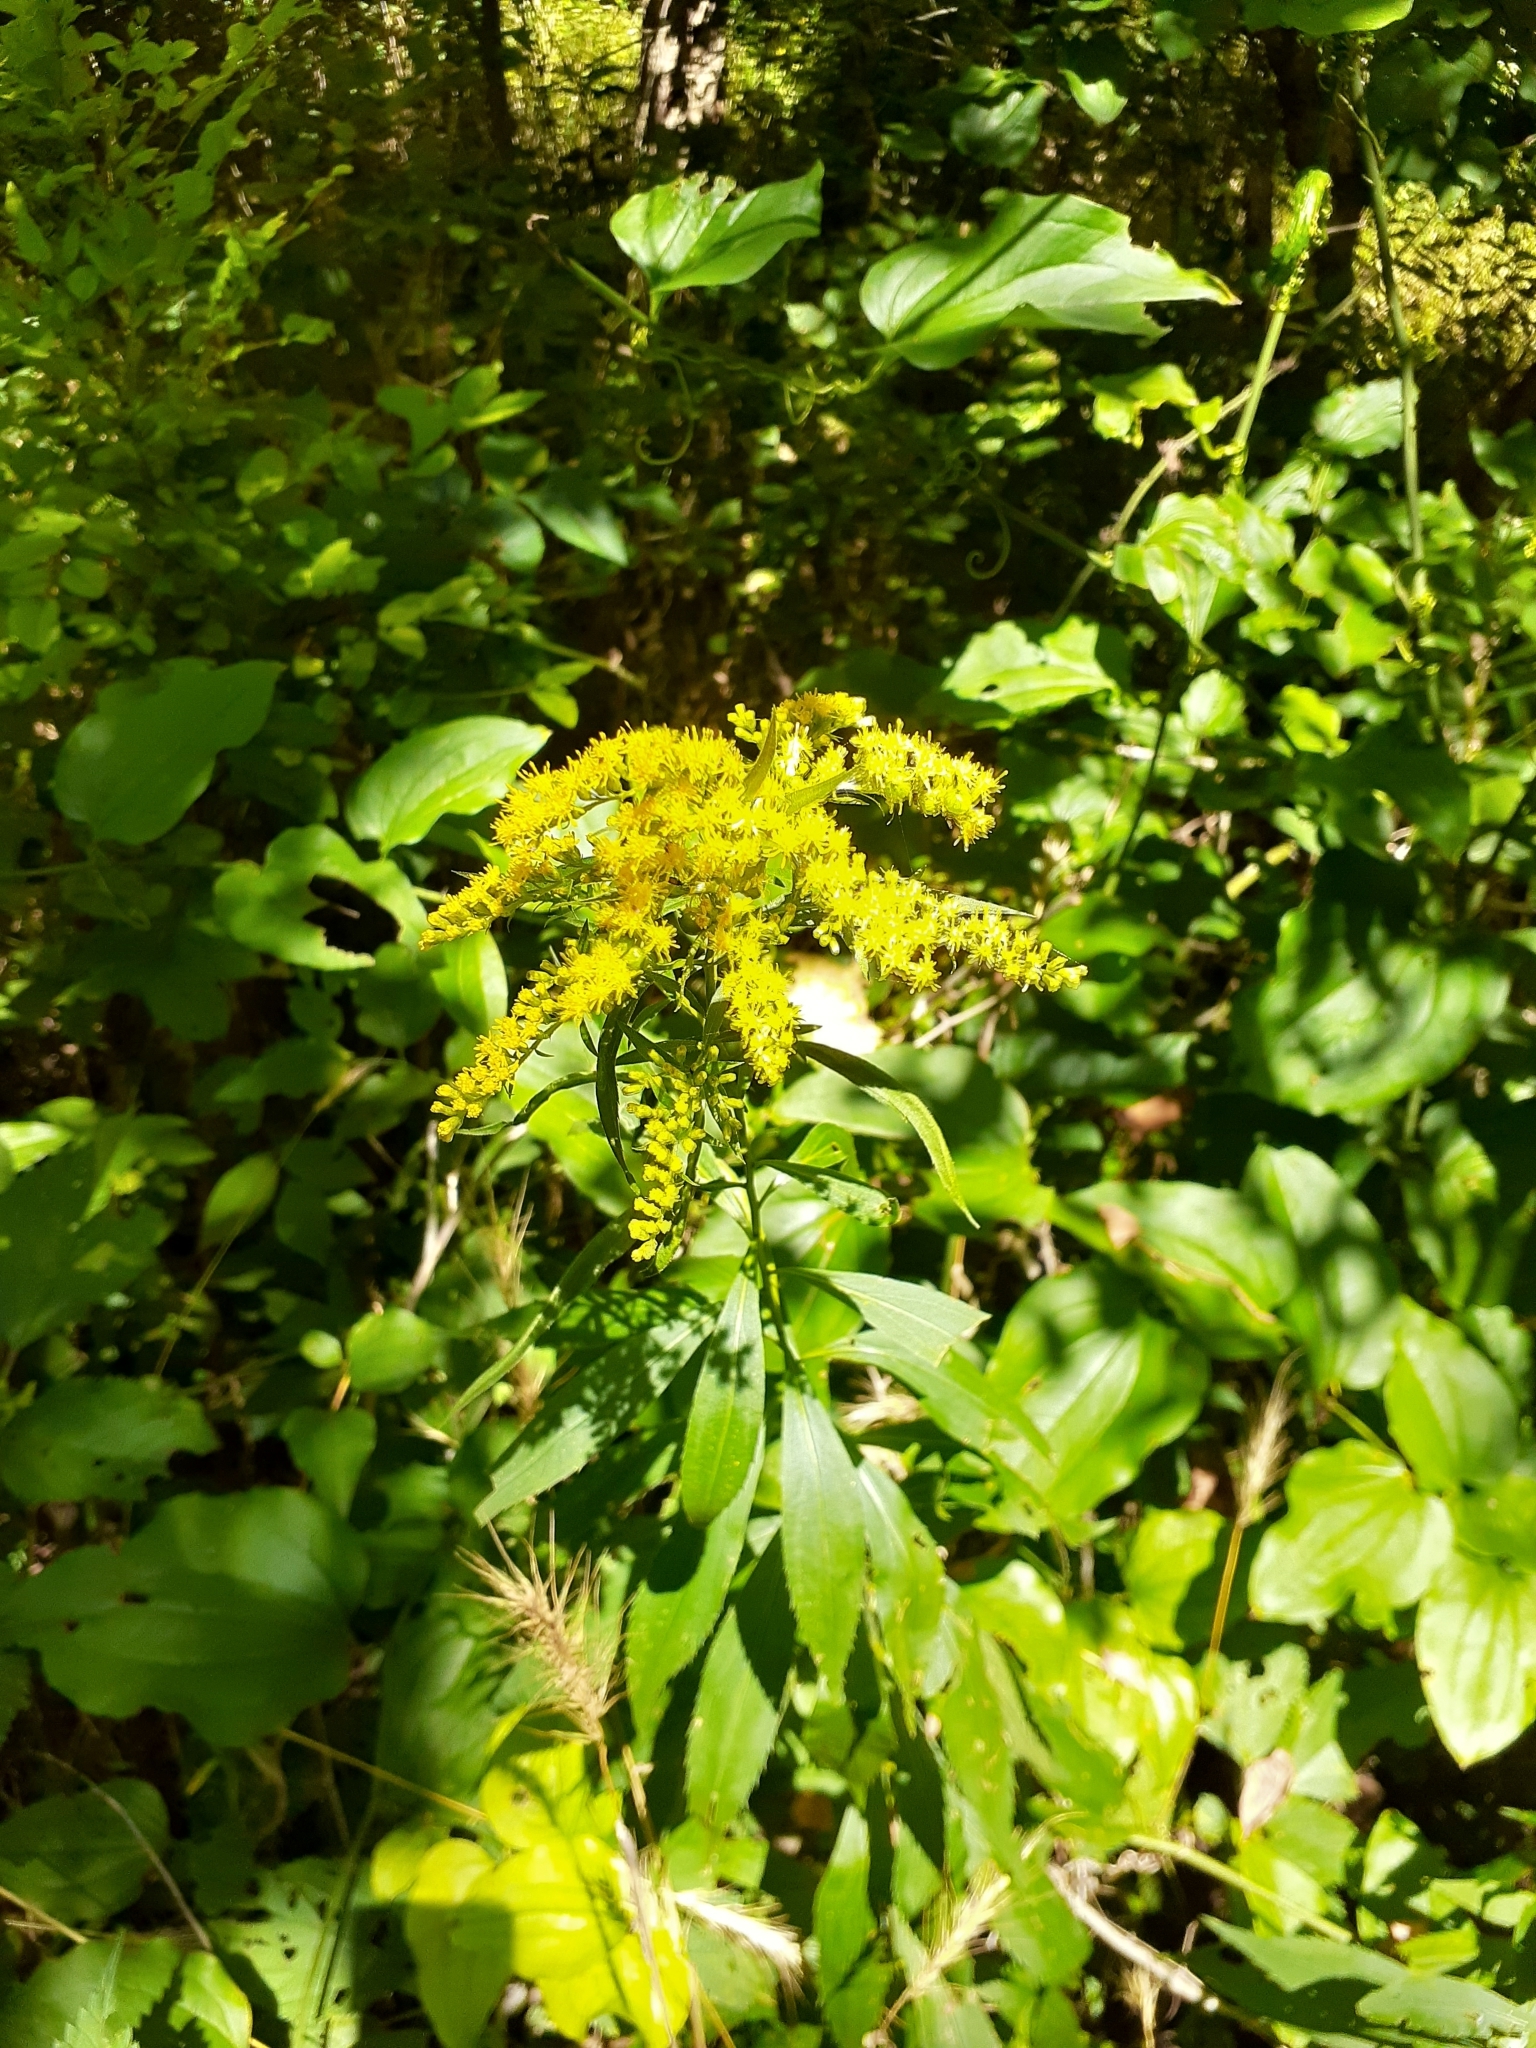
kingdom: Plantae
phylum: Tracheophyta
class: Magnoliopsida
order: Asterales
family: Asteraceae
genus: Solidago
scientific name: Solidago juncea
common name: Early goldenrod
